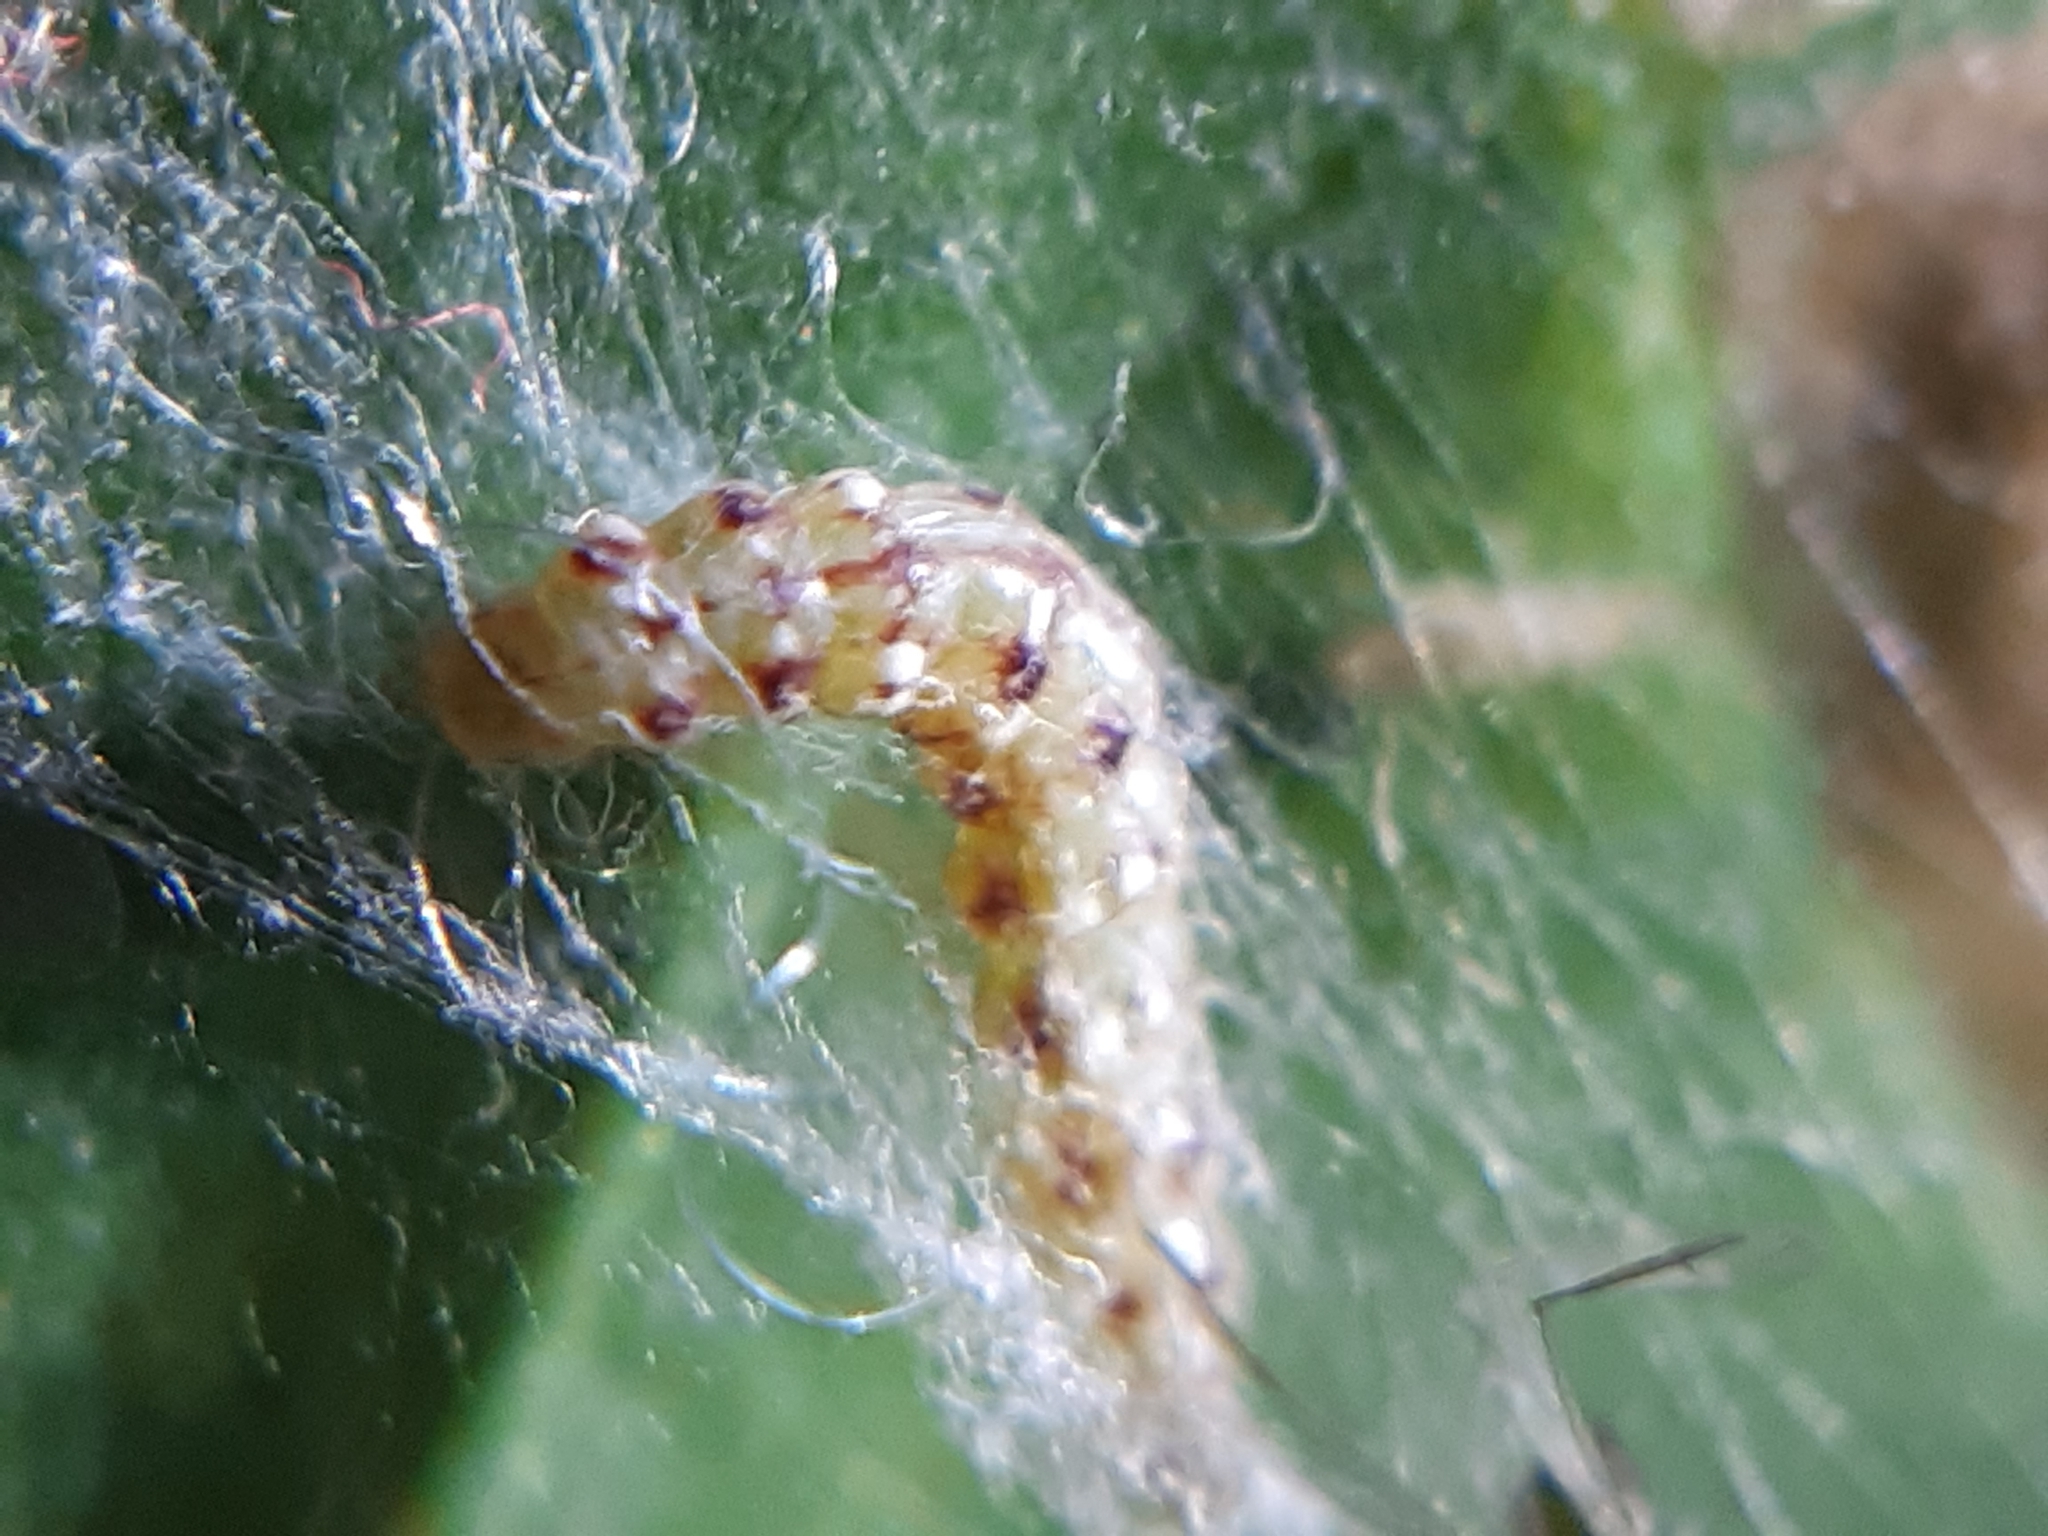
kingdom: Animalia
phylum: Arthropoda
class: Insecta
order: Lepidoptera
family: Bedelliidae
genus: Bedellia
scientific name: Bedellia somnulentella
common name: Morning-glory leafminer moth
